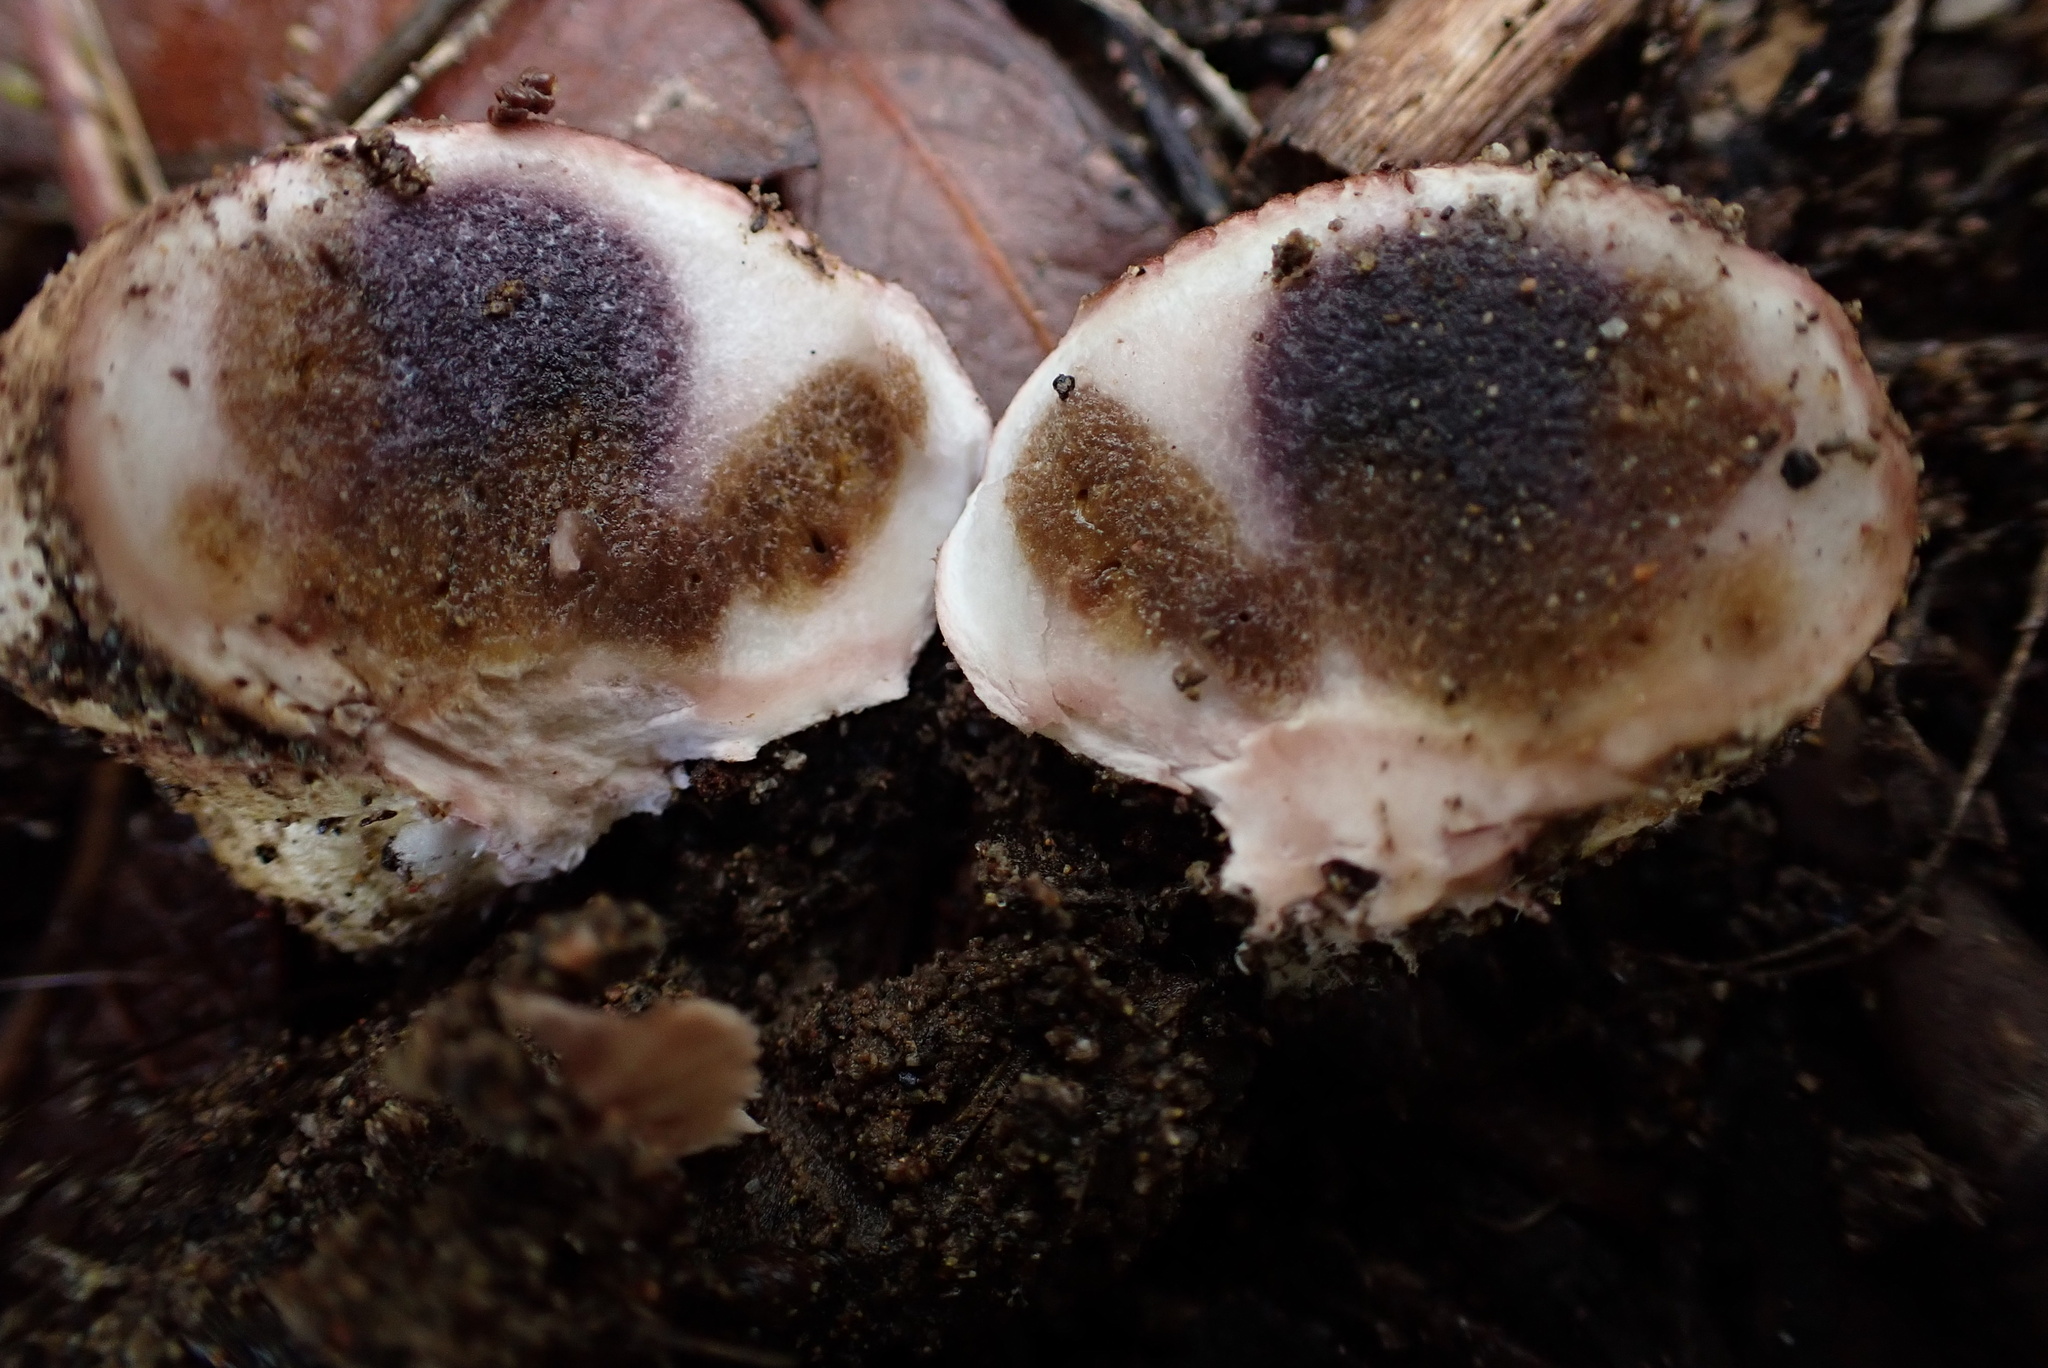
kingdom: Fungi
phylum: Basidiomycota
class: Agaricomycetes
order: Boletales
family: Sclerodermataceae
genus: Scleroderma
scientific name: Scleroderma areolatum
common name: Leopard earthball
